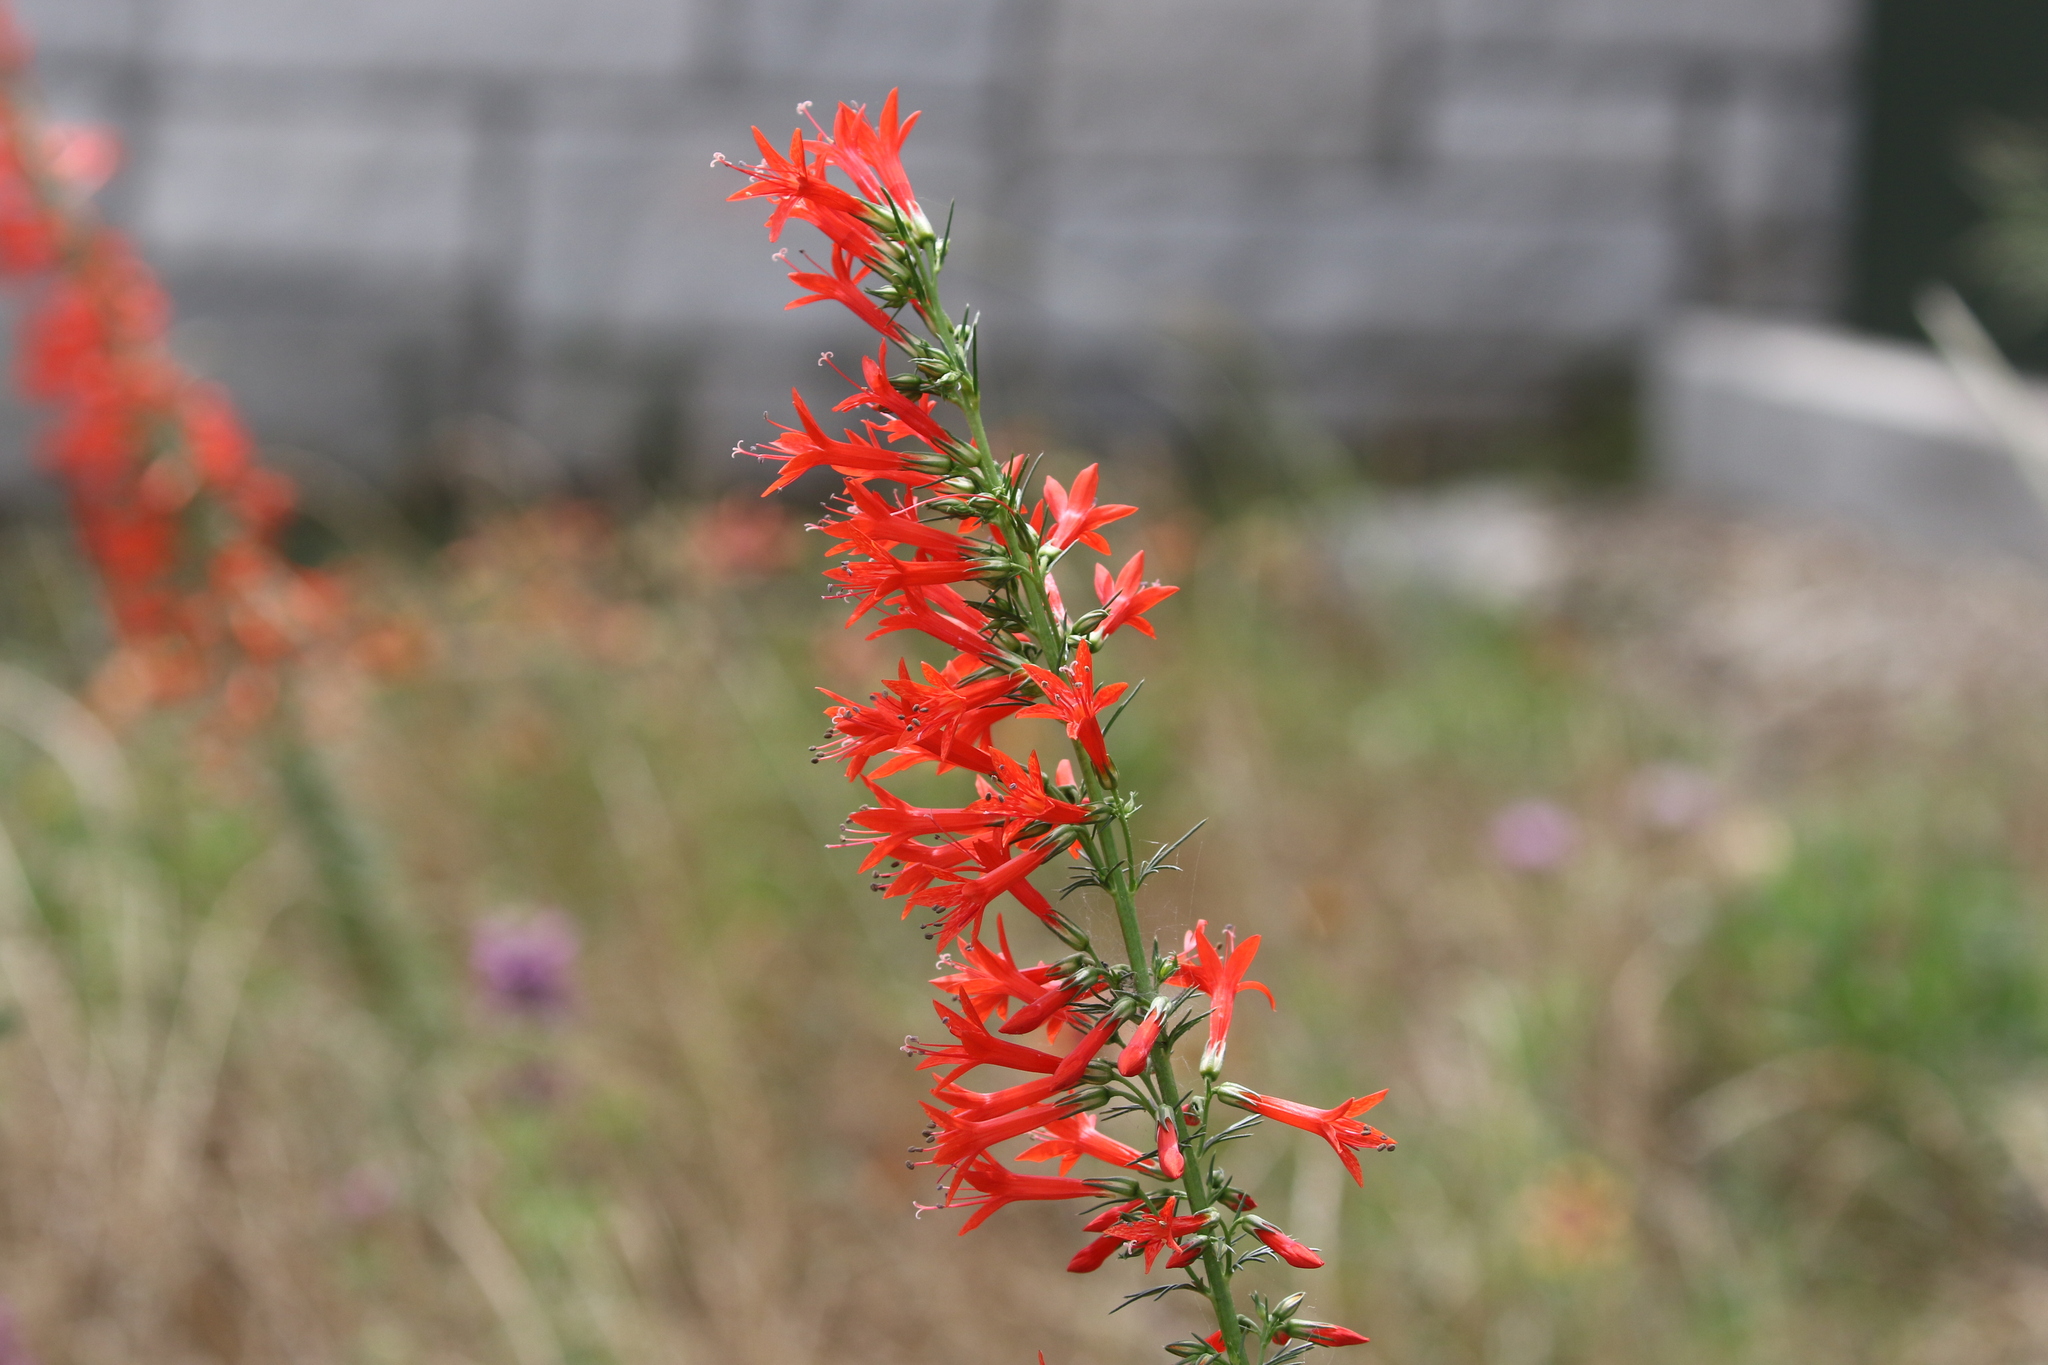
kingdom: Plantae
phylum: Tracheophyta
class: Magnoliopsida
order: Ericales
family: Polemoniaceae
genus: Ipomopsis
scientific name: Ipomopsis rubra
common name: Skyrocket
